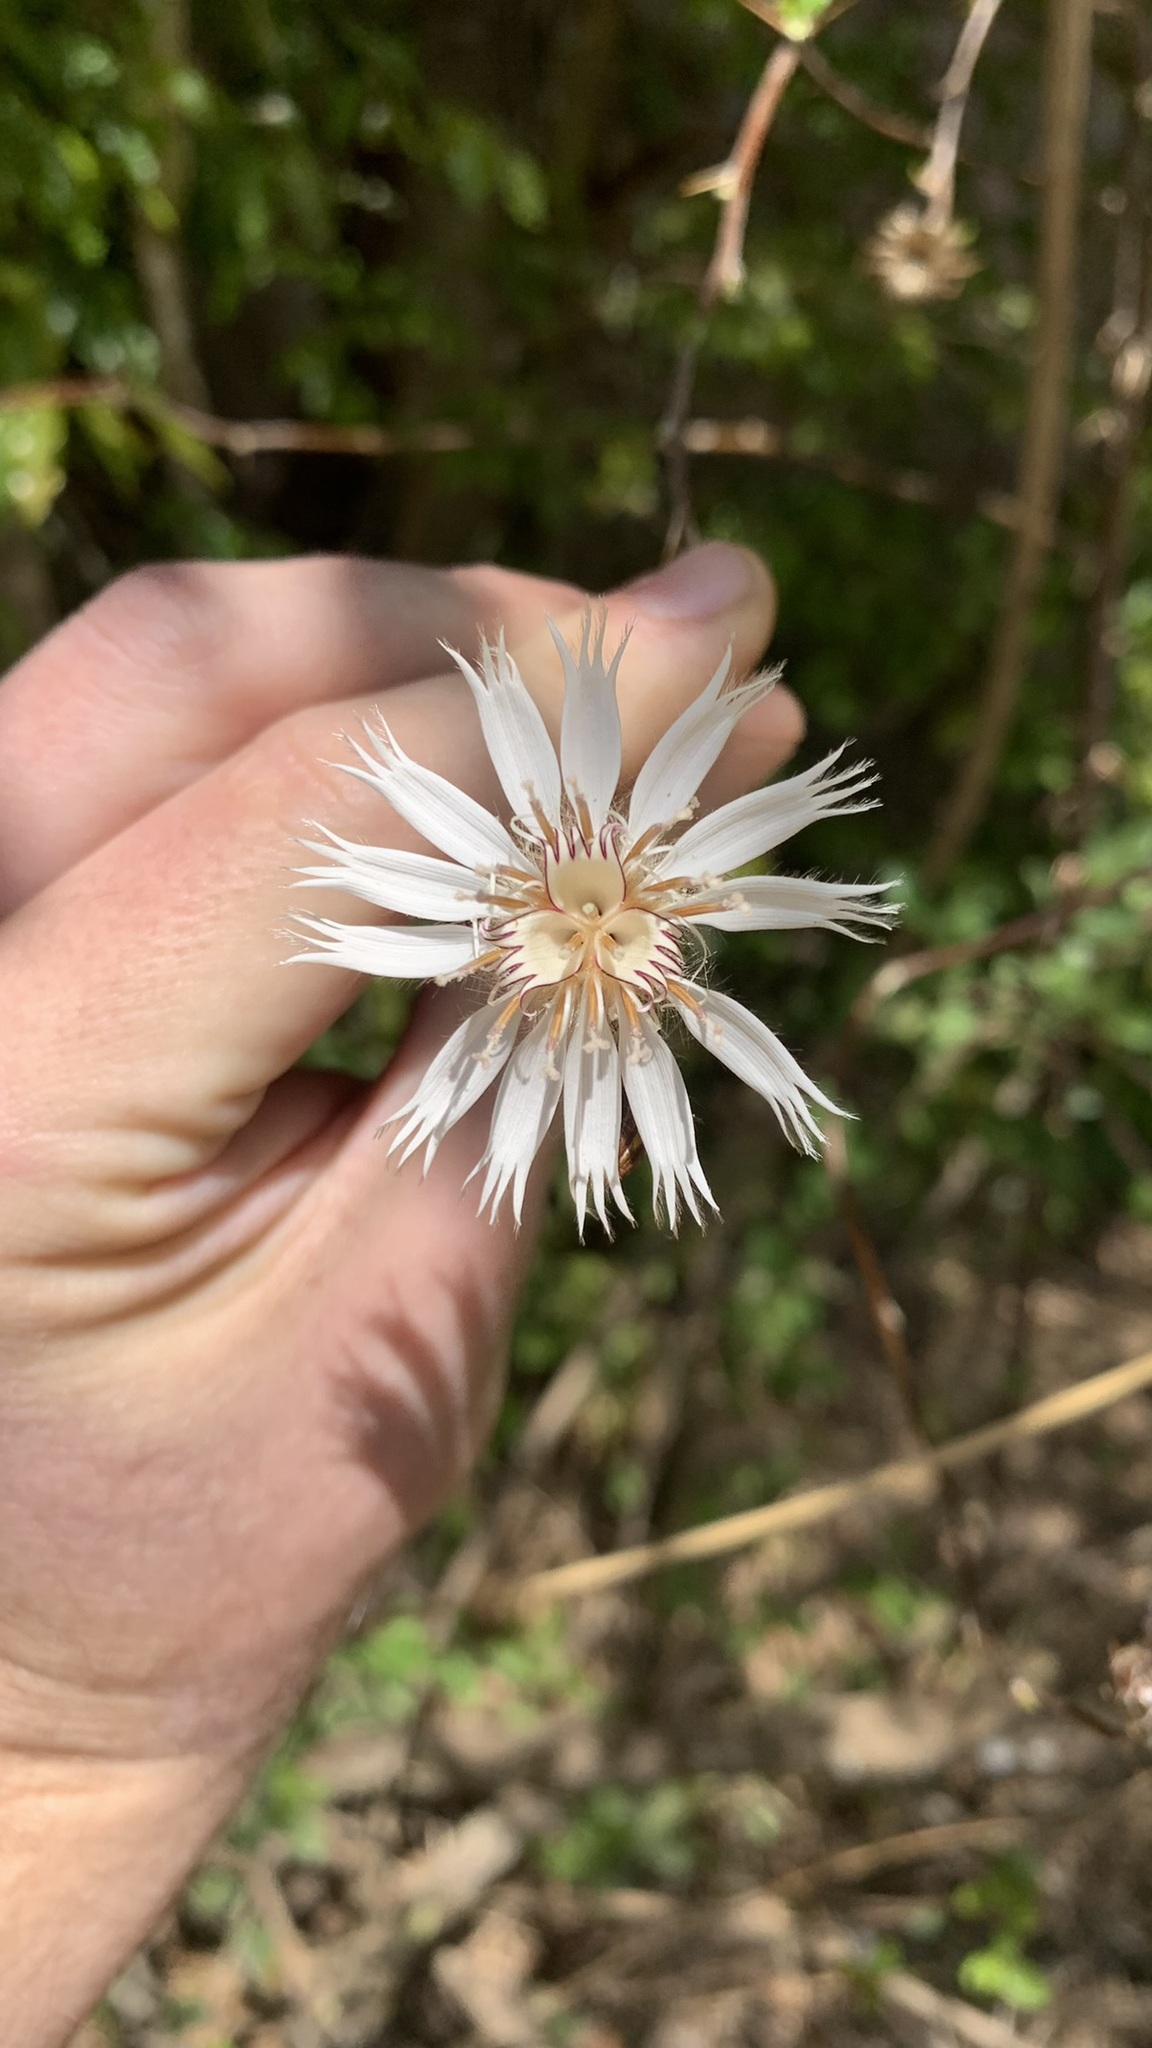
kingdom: Plantae
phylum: Tracheophyta
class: Magnoliopsida
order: Asterales
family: Asteraceae
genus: Barnadesia
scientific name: Barnadesia odorata
